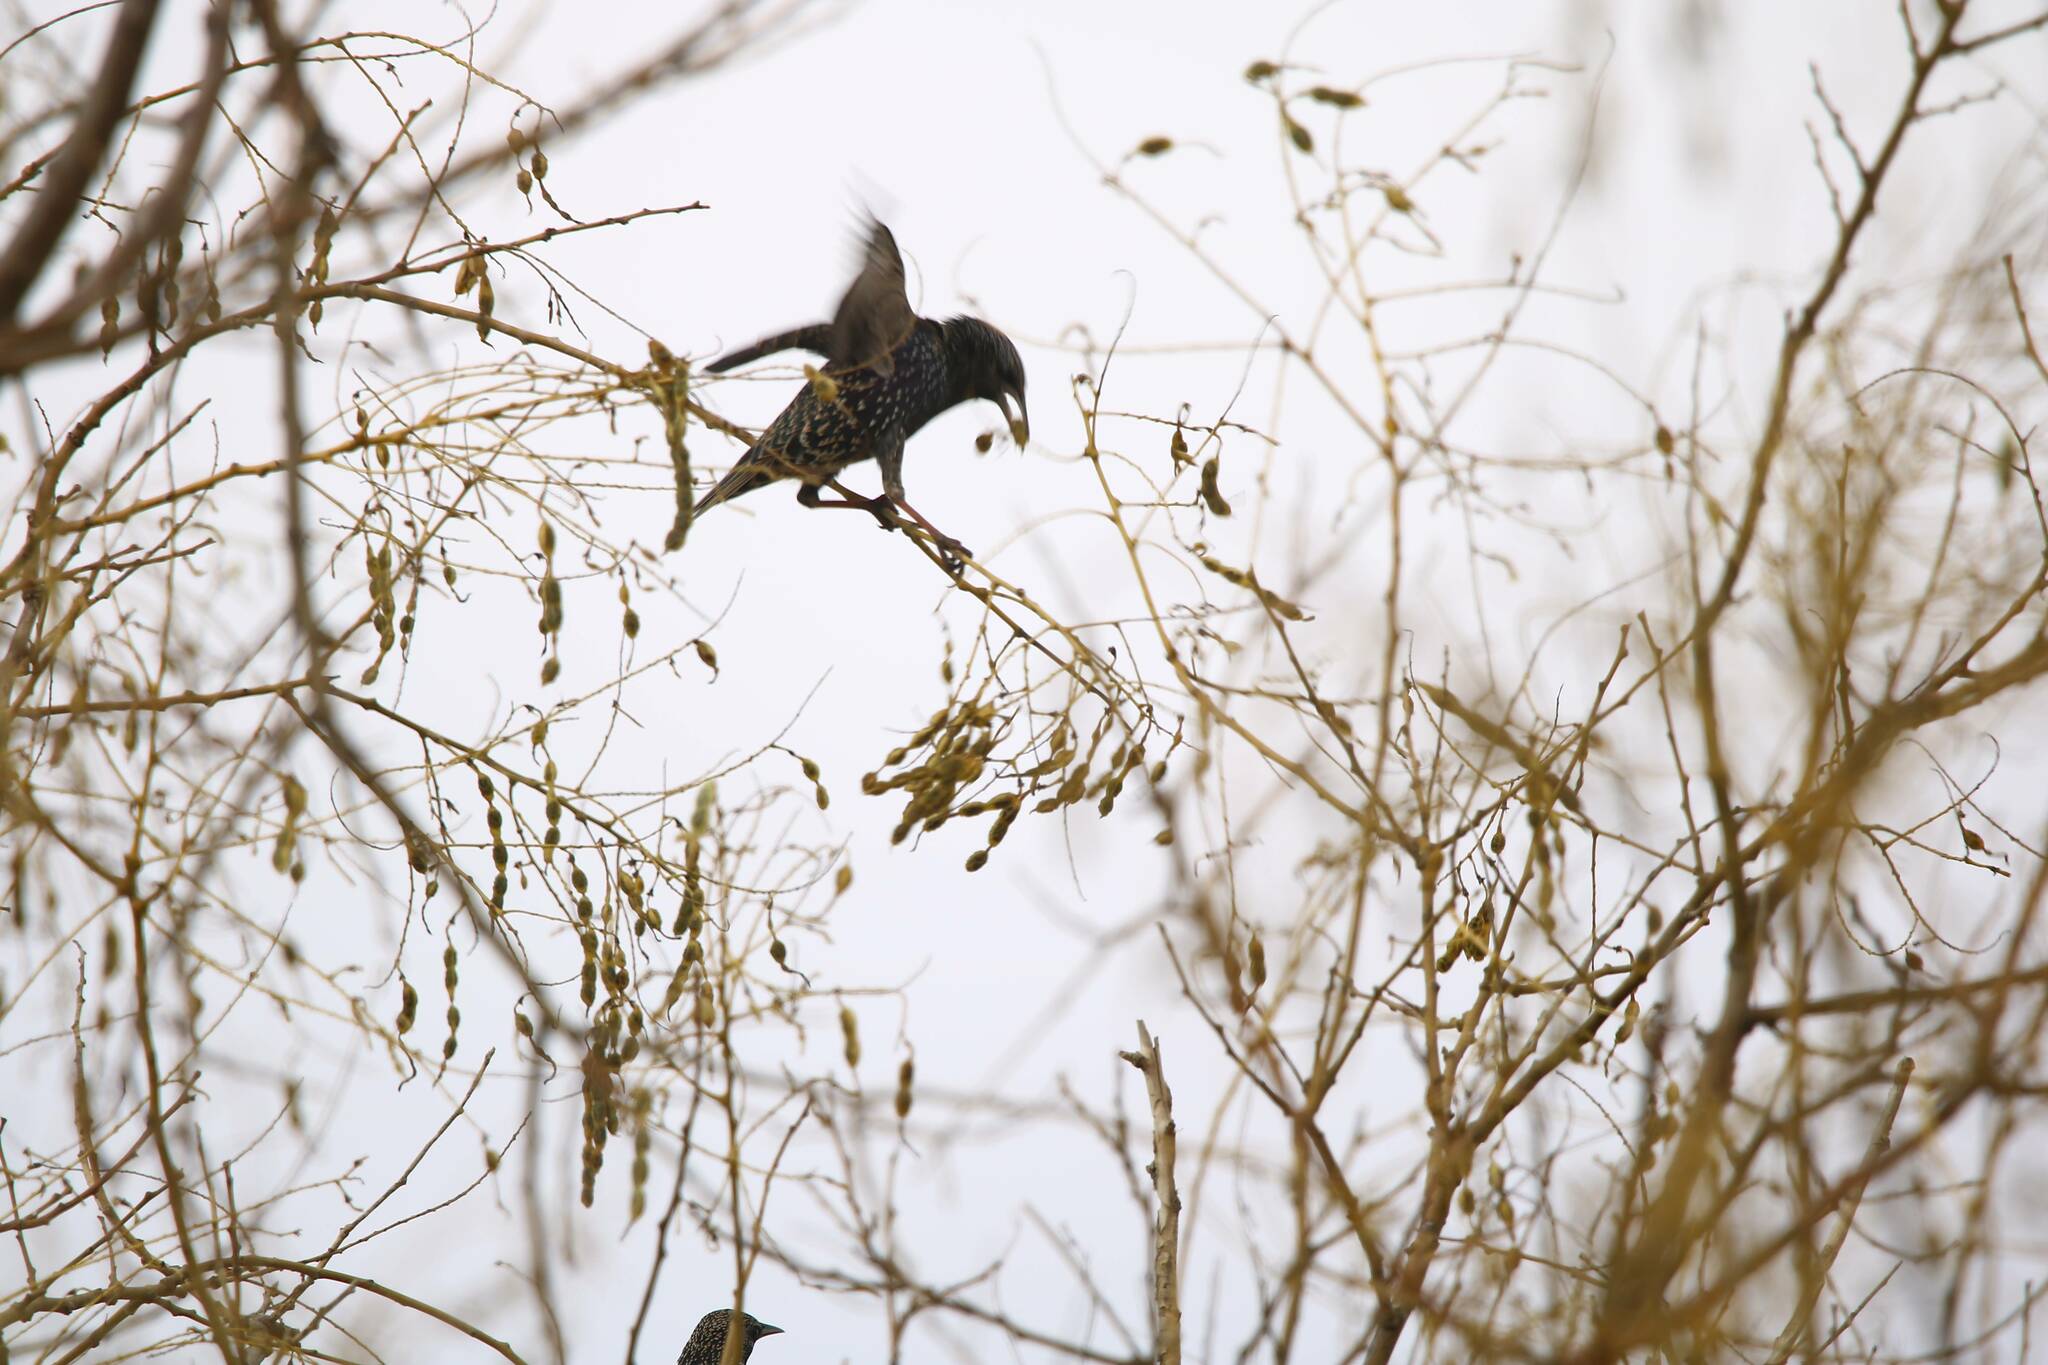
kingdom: Animalia
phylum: Chordata
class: Aves
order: Passeriformes
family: Sturnidae
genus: Sturnus
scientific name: Sturnus vulgaris
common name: Common starling
